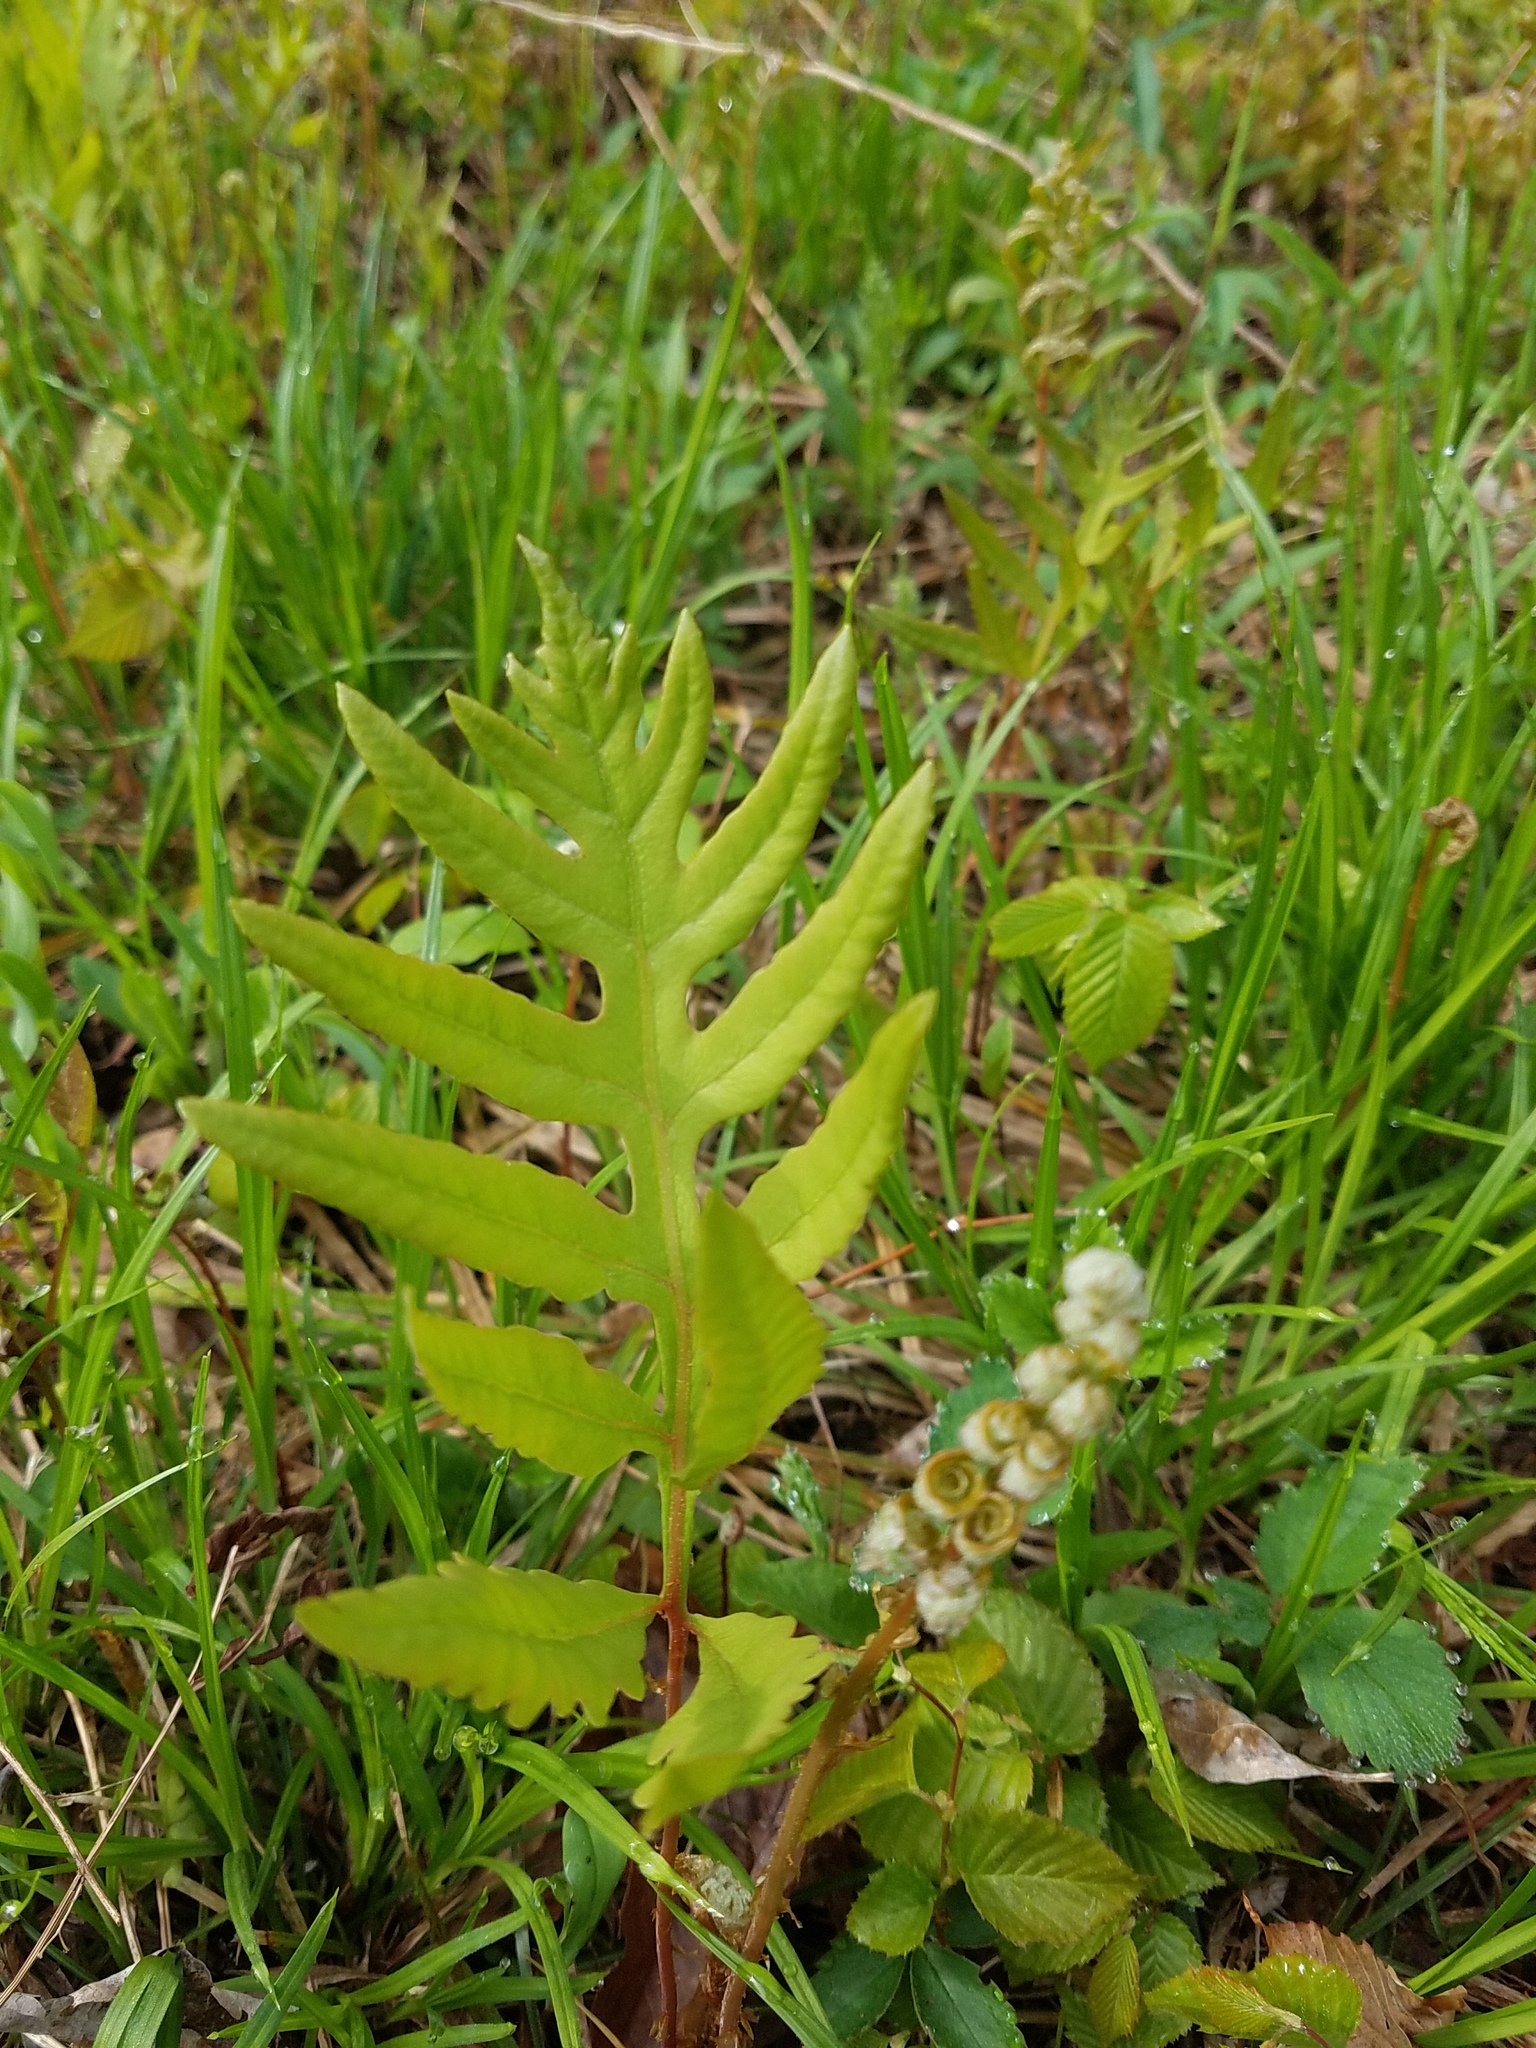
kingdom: Plantae
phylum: Tracheophyta
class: Polypodiopsida
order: Polypodiales
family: Onocleaceae
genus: Onoclea
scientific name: Onoclea sensibilis
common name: Sensitive fern
